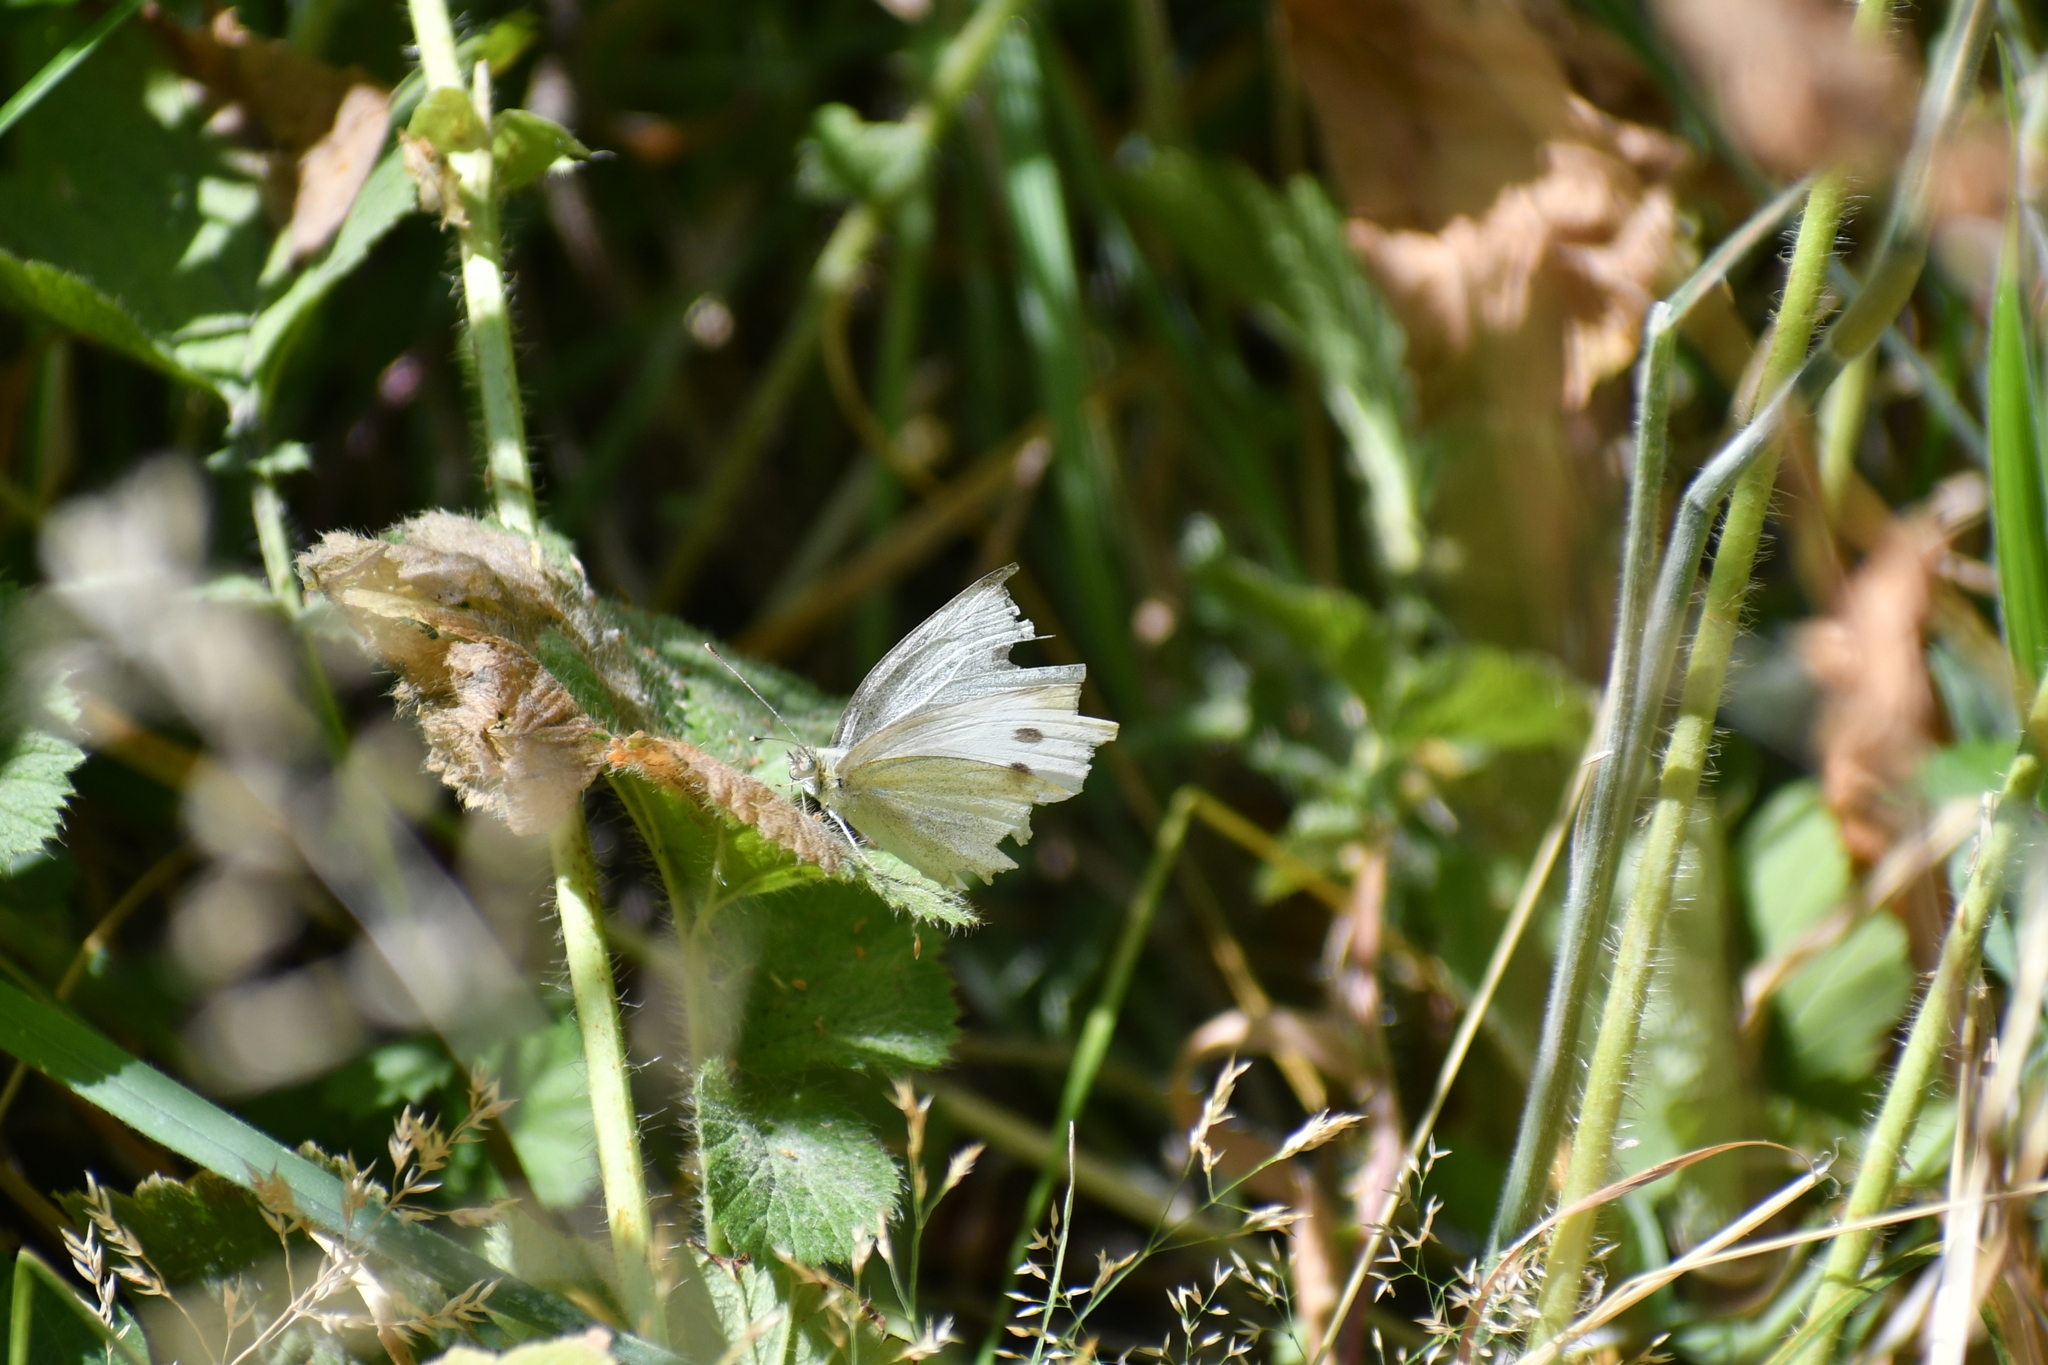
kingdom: Animalia
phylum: Arthropoda
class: Insecta
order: Lepidoptera
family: Pieridae
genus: Pieris
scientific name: Pieris rapae
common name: Small white
